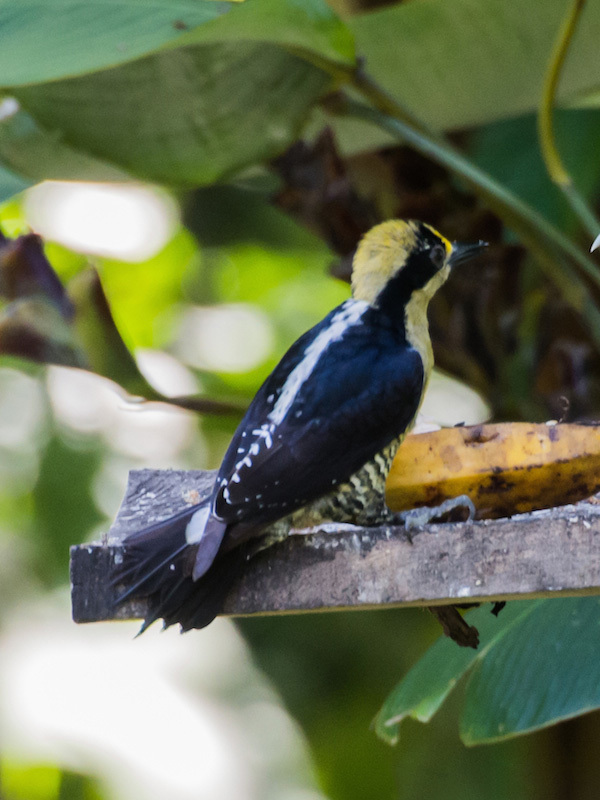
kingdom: Animalia
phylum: Chordata
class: Aves
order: Piciformes
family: Picidae
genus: Melanerpes
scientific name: Melanerpes chrysauchen
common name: Golden-naped woodpecker
